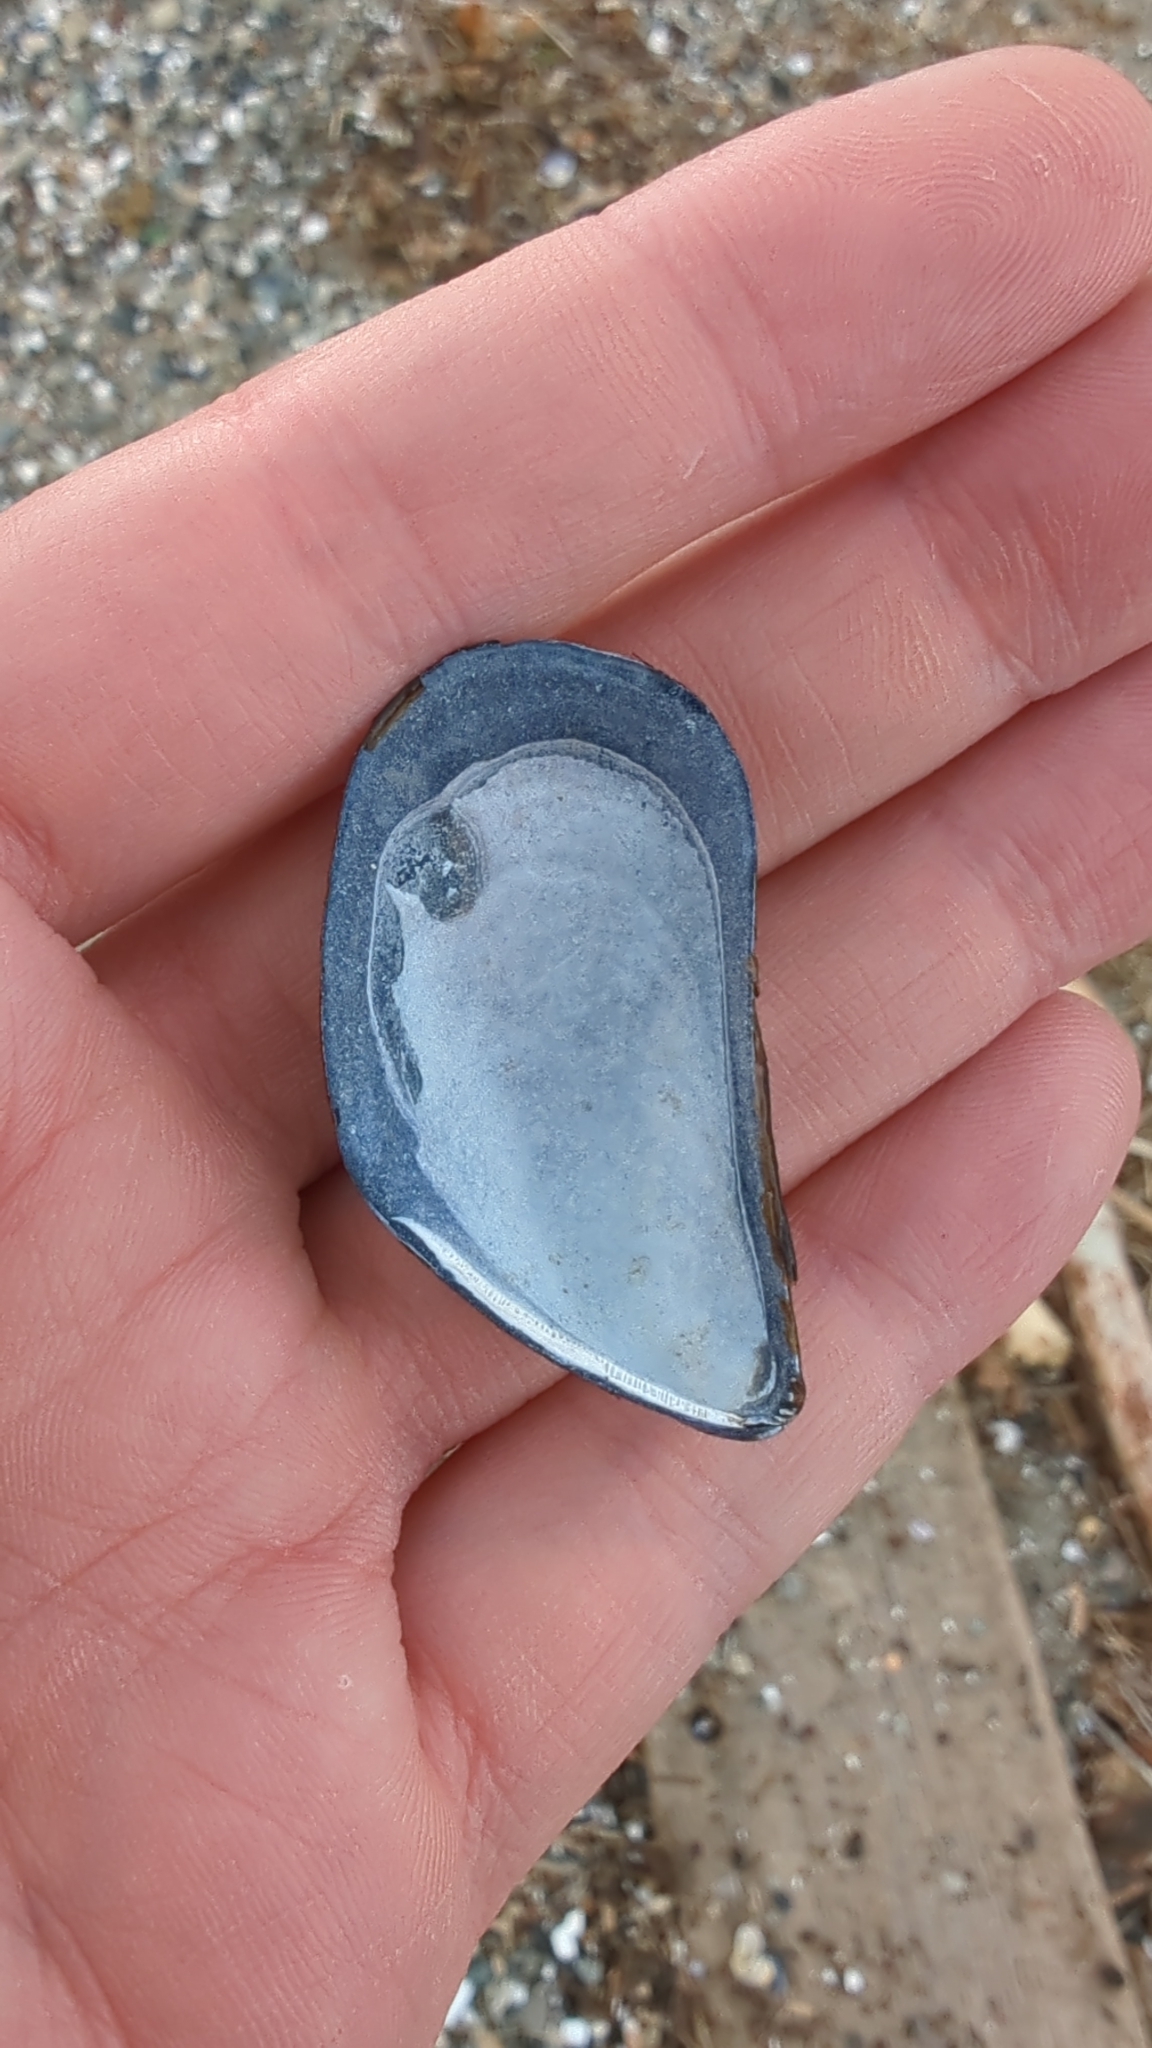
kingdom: Animalia
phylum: Mollusca
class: Bivalvia
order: Mytilida
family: Mytilidae
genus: Mytilus
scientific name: Mytilus
